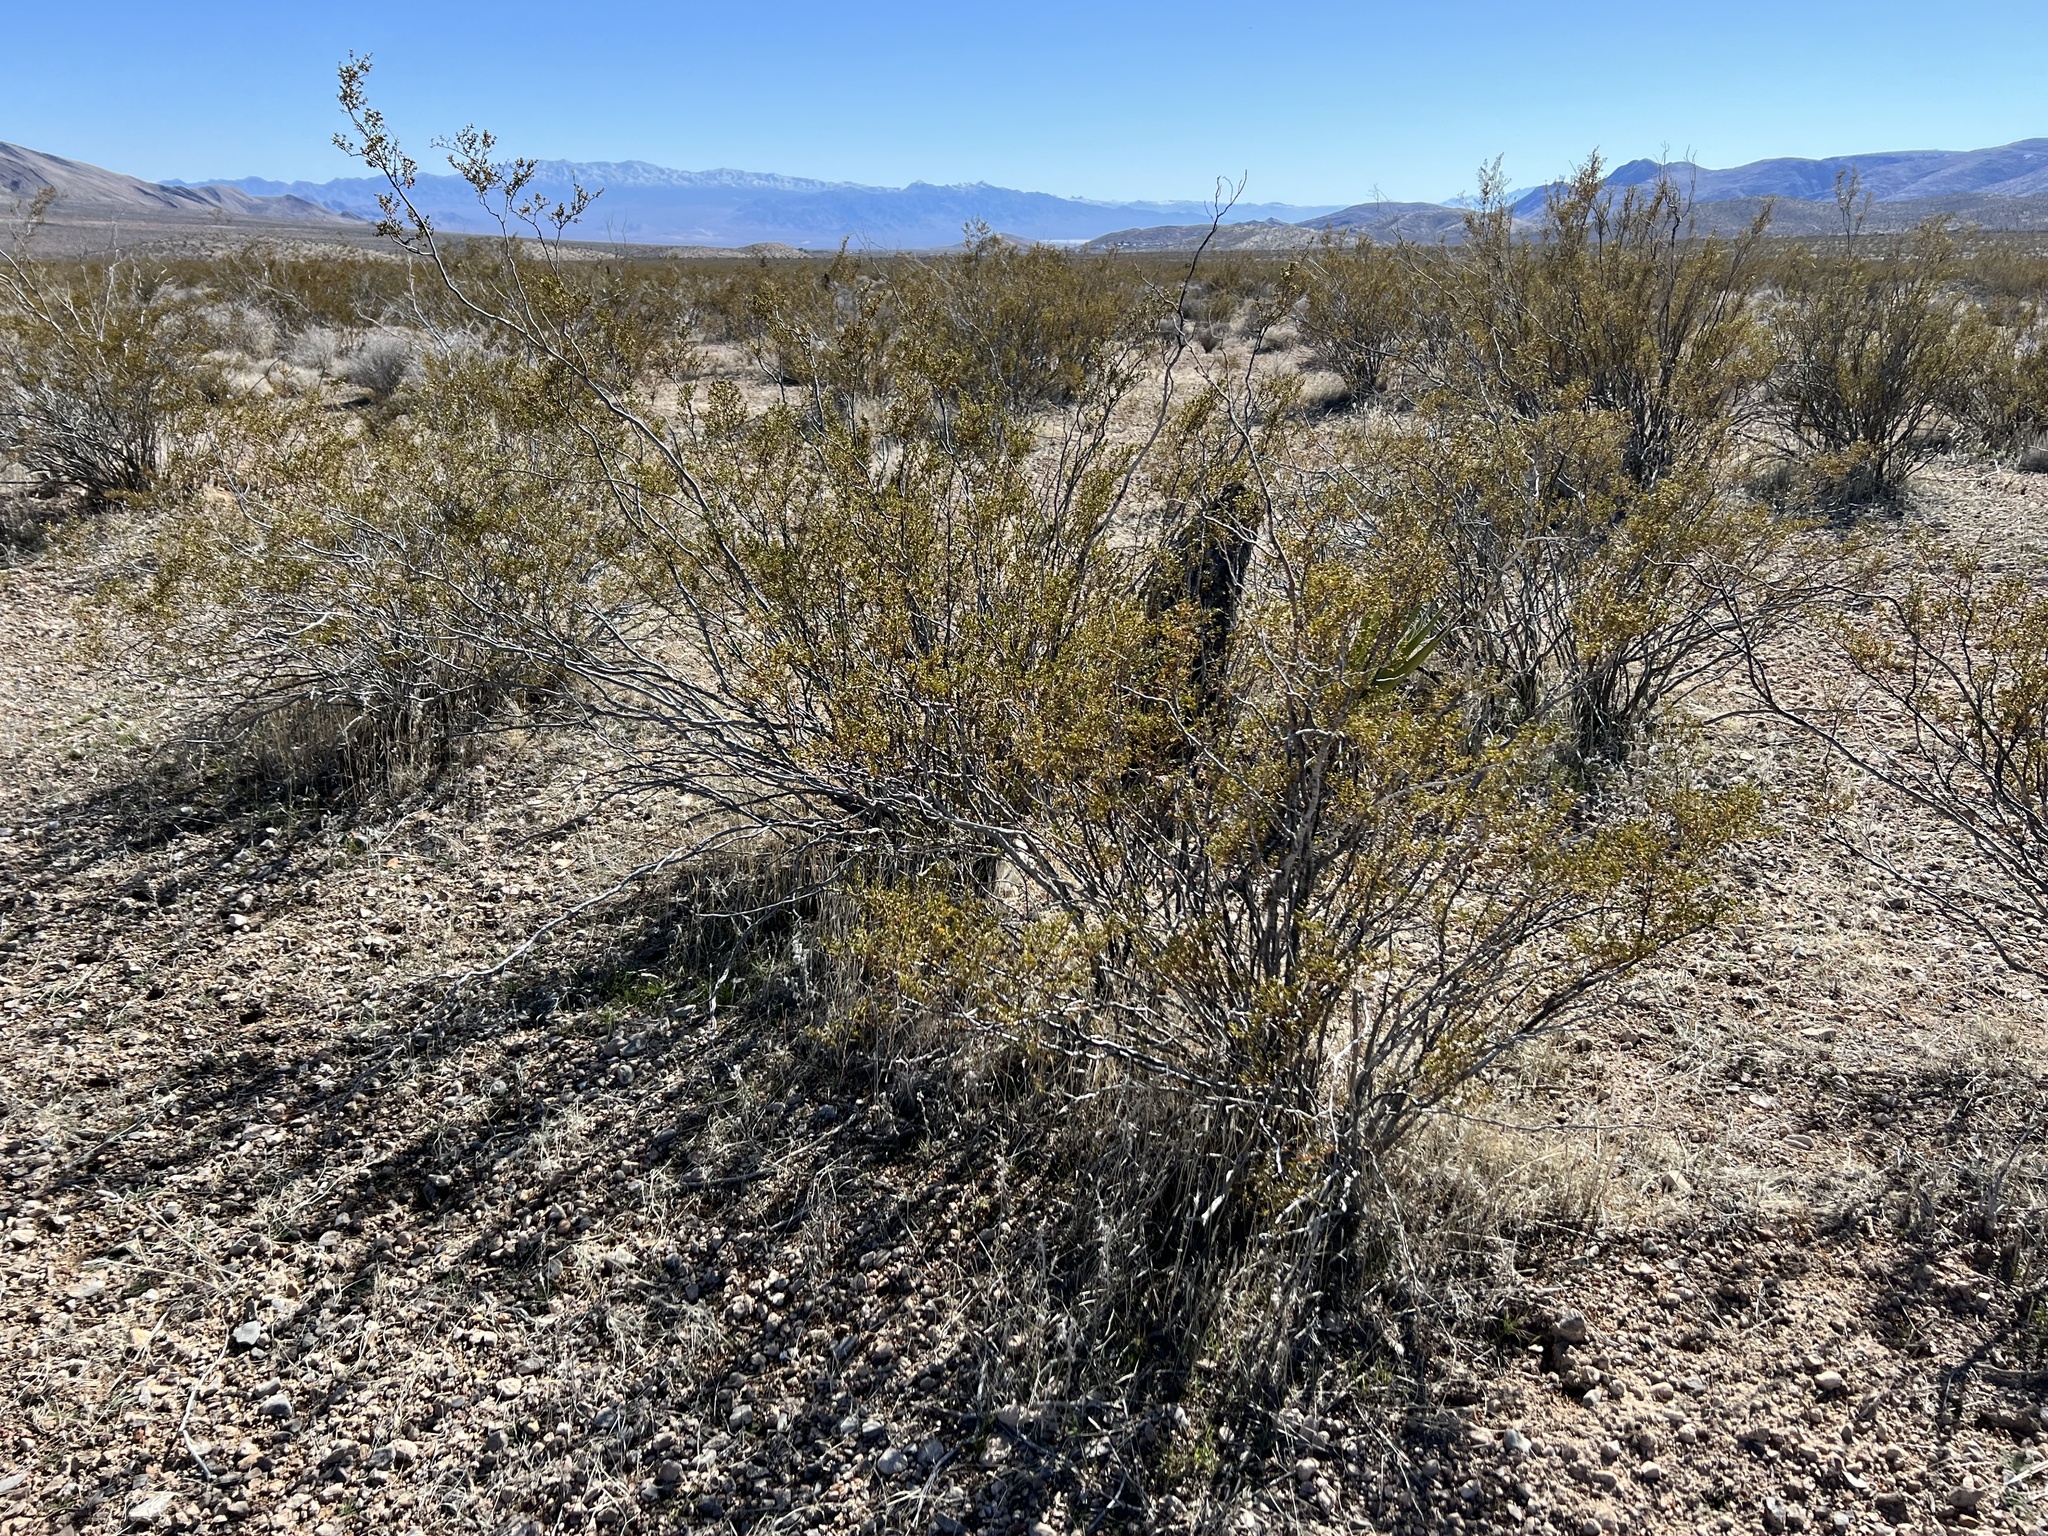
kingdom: Plantae
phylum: Tracheophyta
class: Magnoliopsida
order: Zygophyllales
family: Zygophyllaceae
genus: Larrea
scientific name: Larrea tridentata
